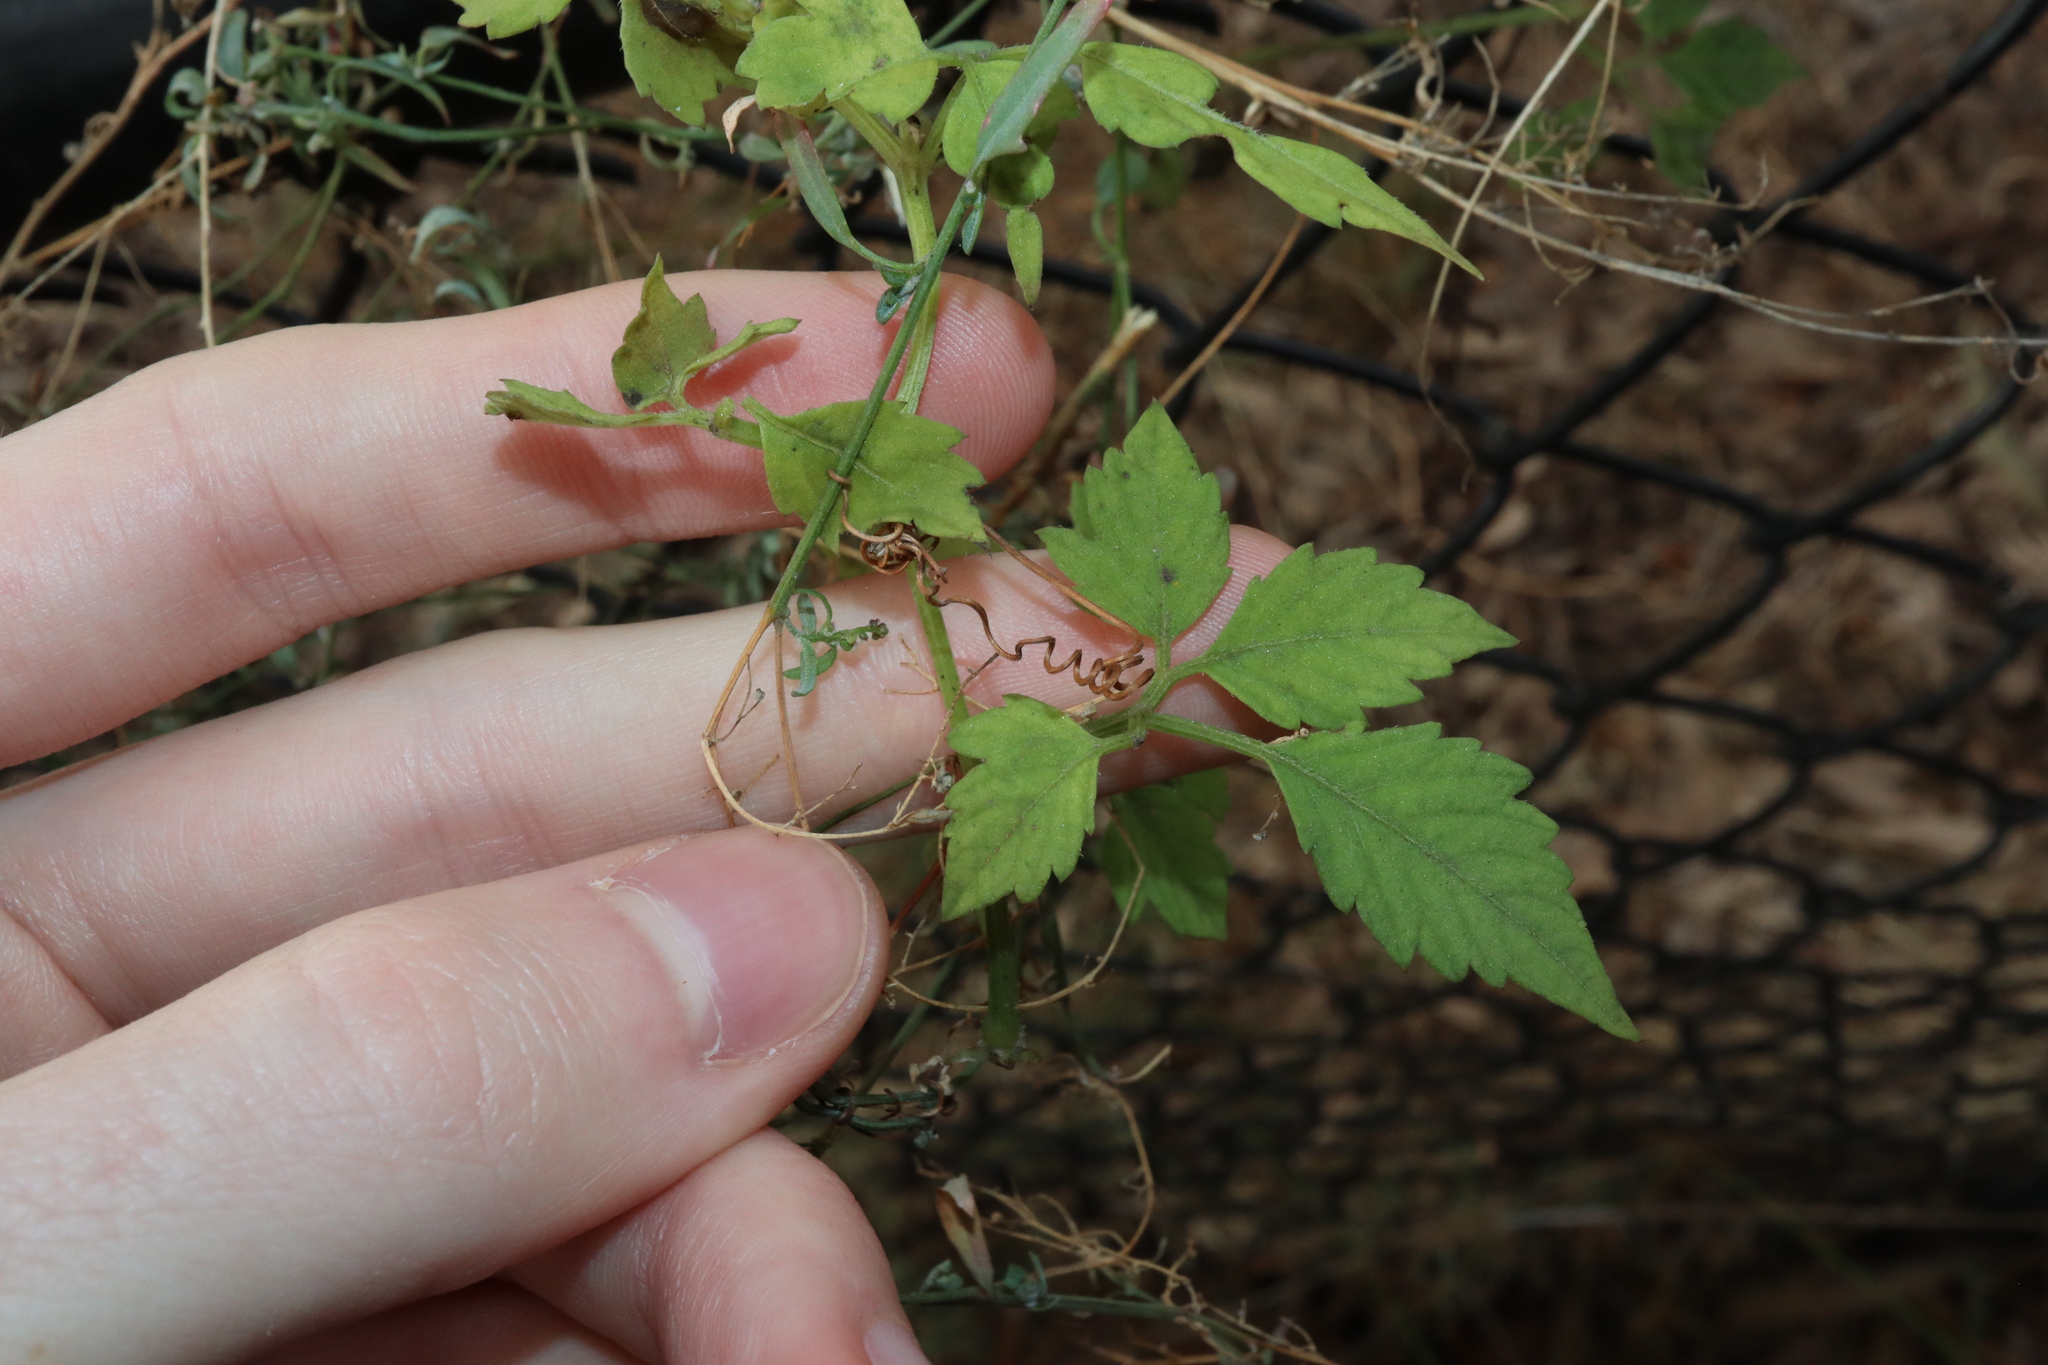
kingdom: Plantae
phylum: Tracheophyta
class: Magnoliopsida
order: Vitales
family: Vitaceae
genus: Causonis
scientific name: Causonis clematidea
